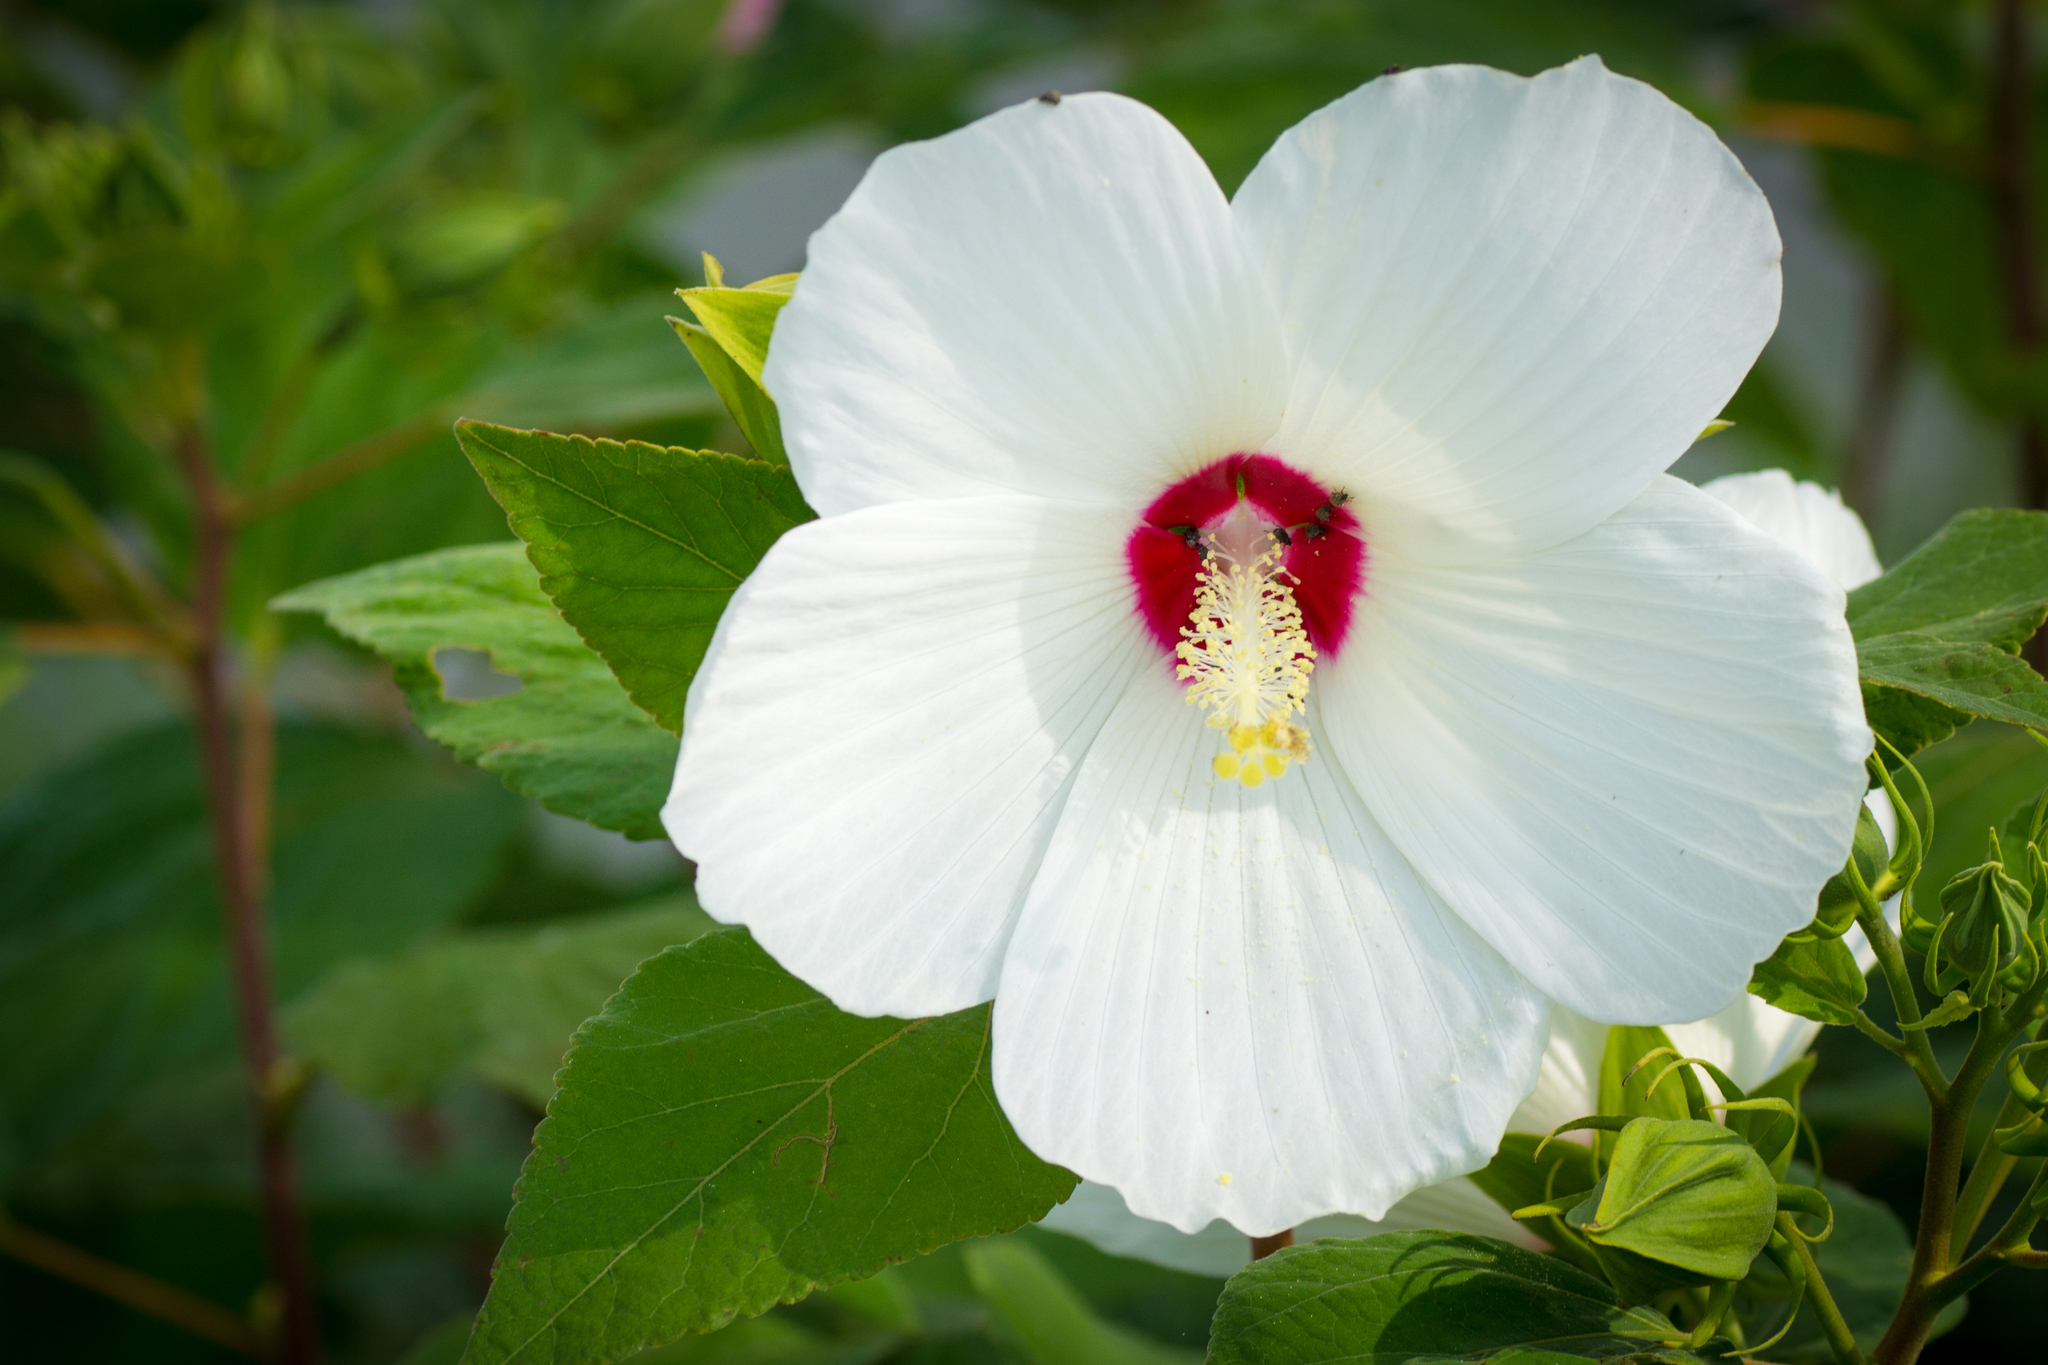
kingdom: Plantae
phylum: Tracheophyta
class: Magnoliopsida
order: Malvales
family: Malvaceae
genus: Hibiscus
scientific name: Hibiscus moscheutos
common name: Common rose-mallow
